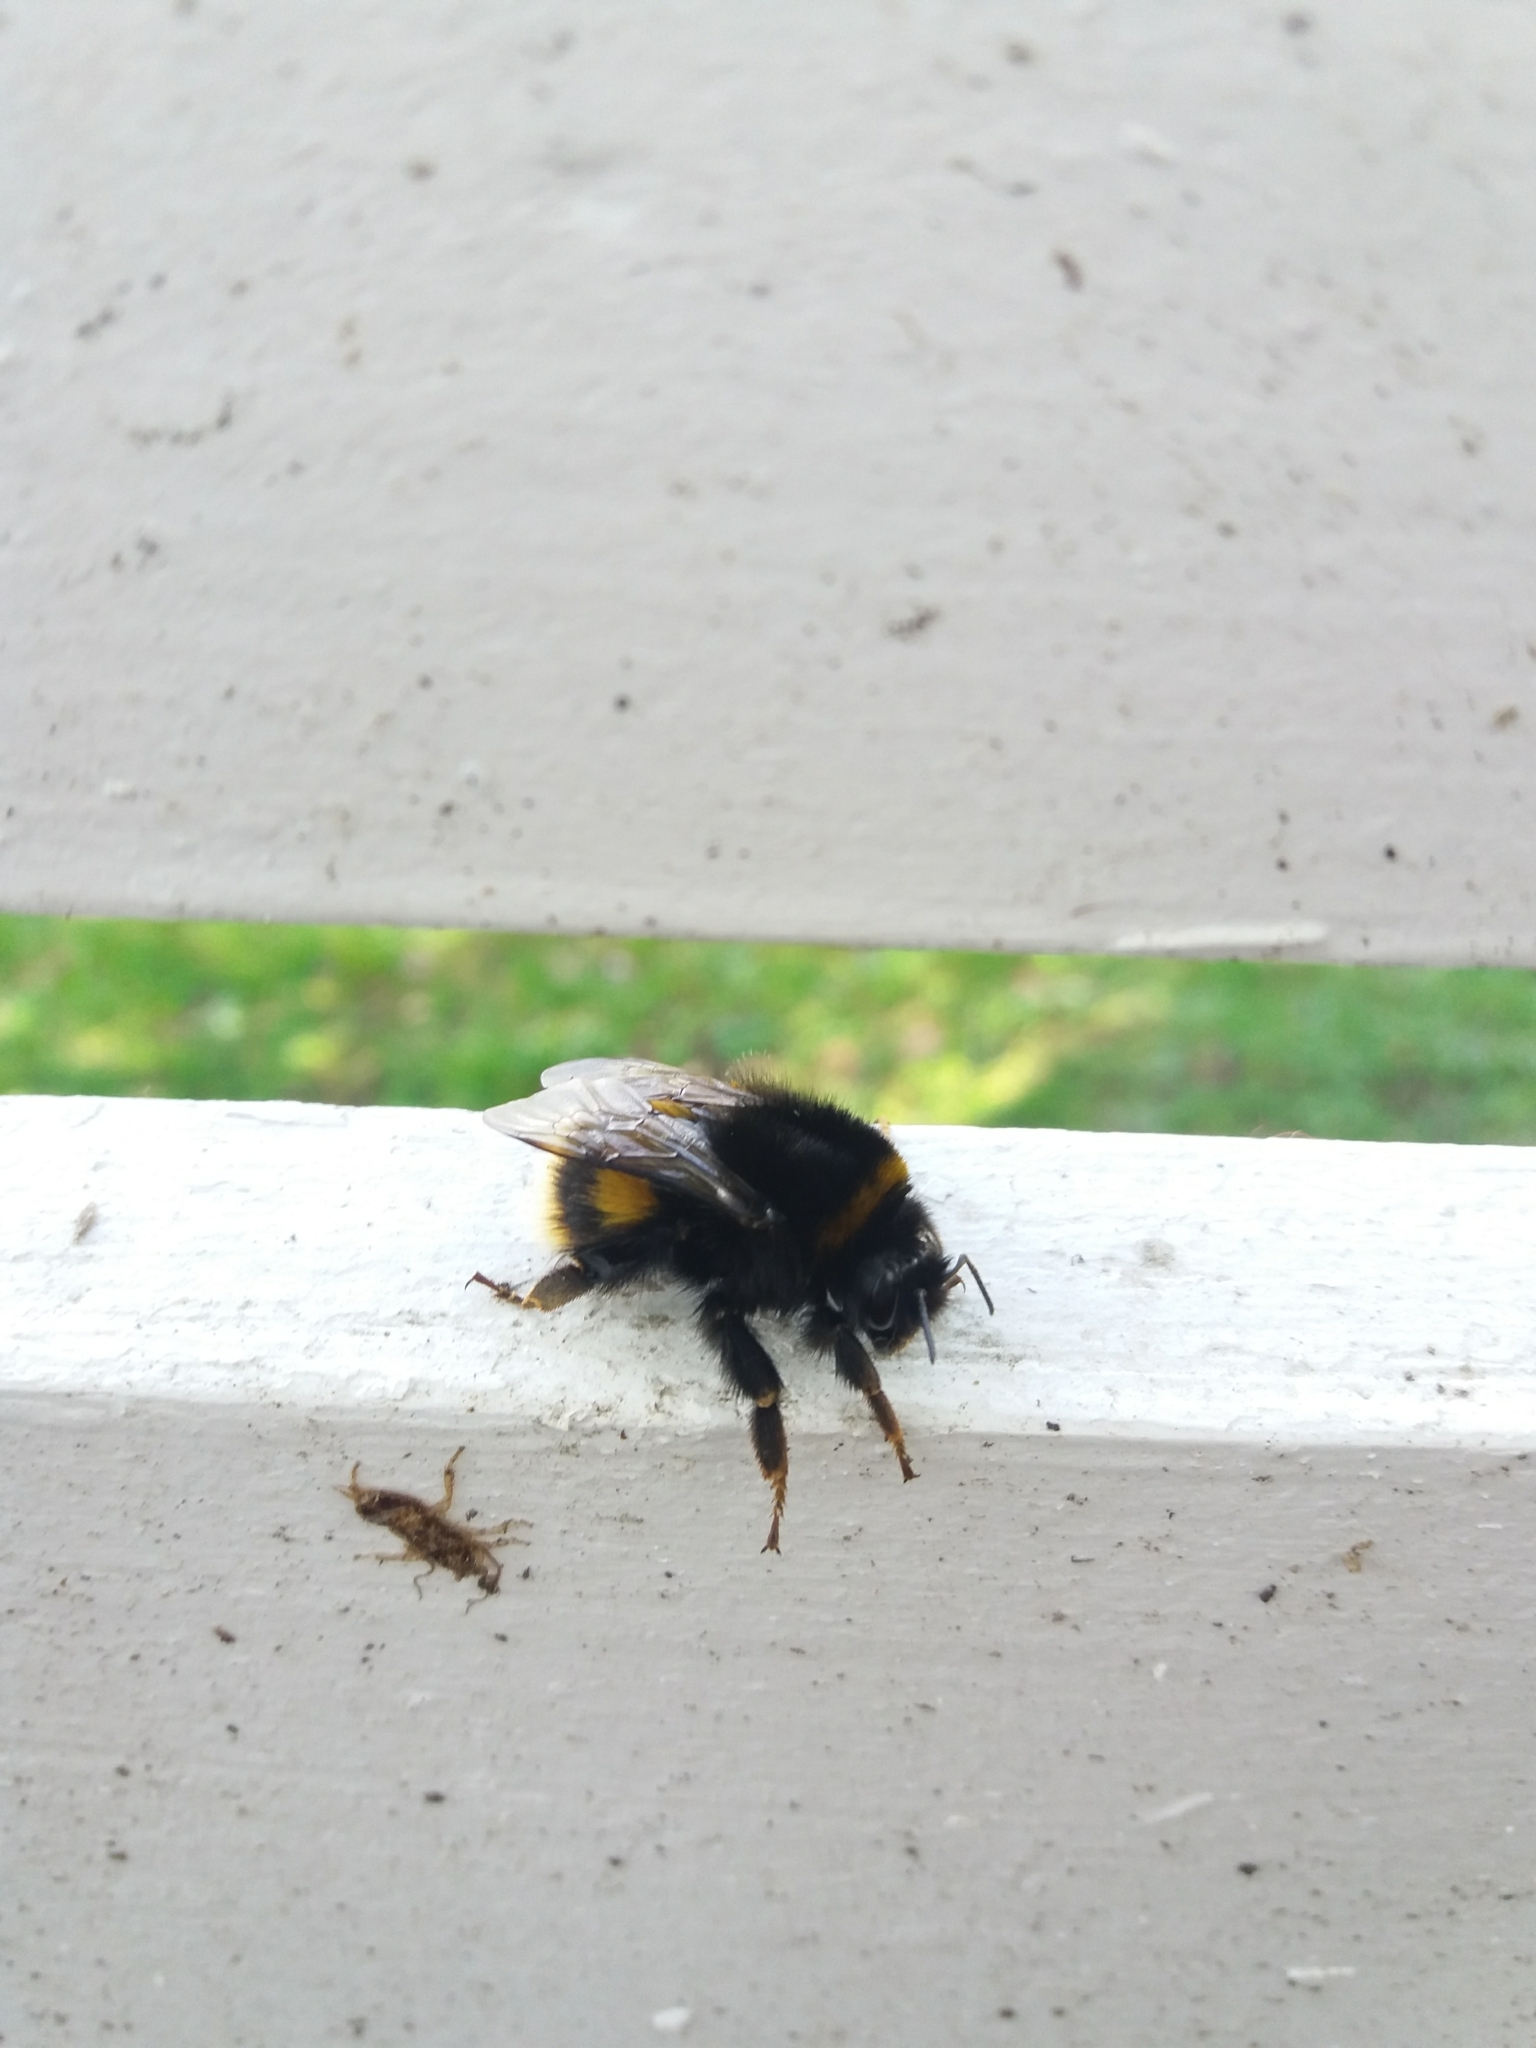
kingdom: Animalia
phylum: Arthropoda
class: Insecta
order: Hymenoptera
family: Apidae
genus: Bombus
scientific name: Bombus terrestris
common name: Buff-tailed bumblebee
